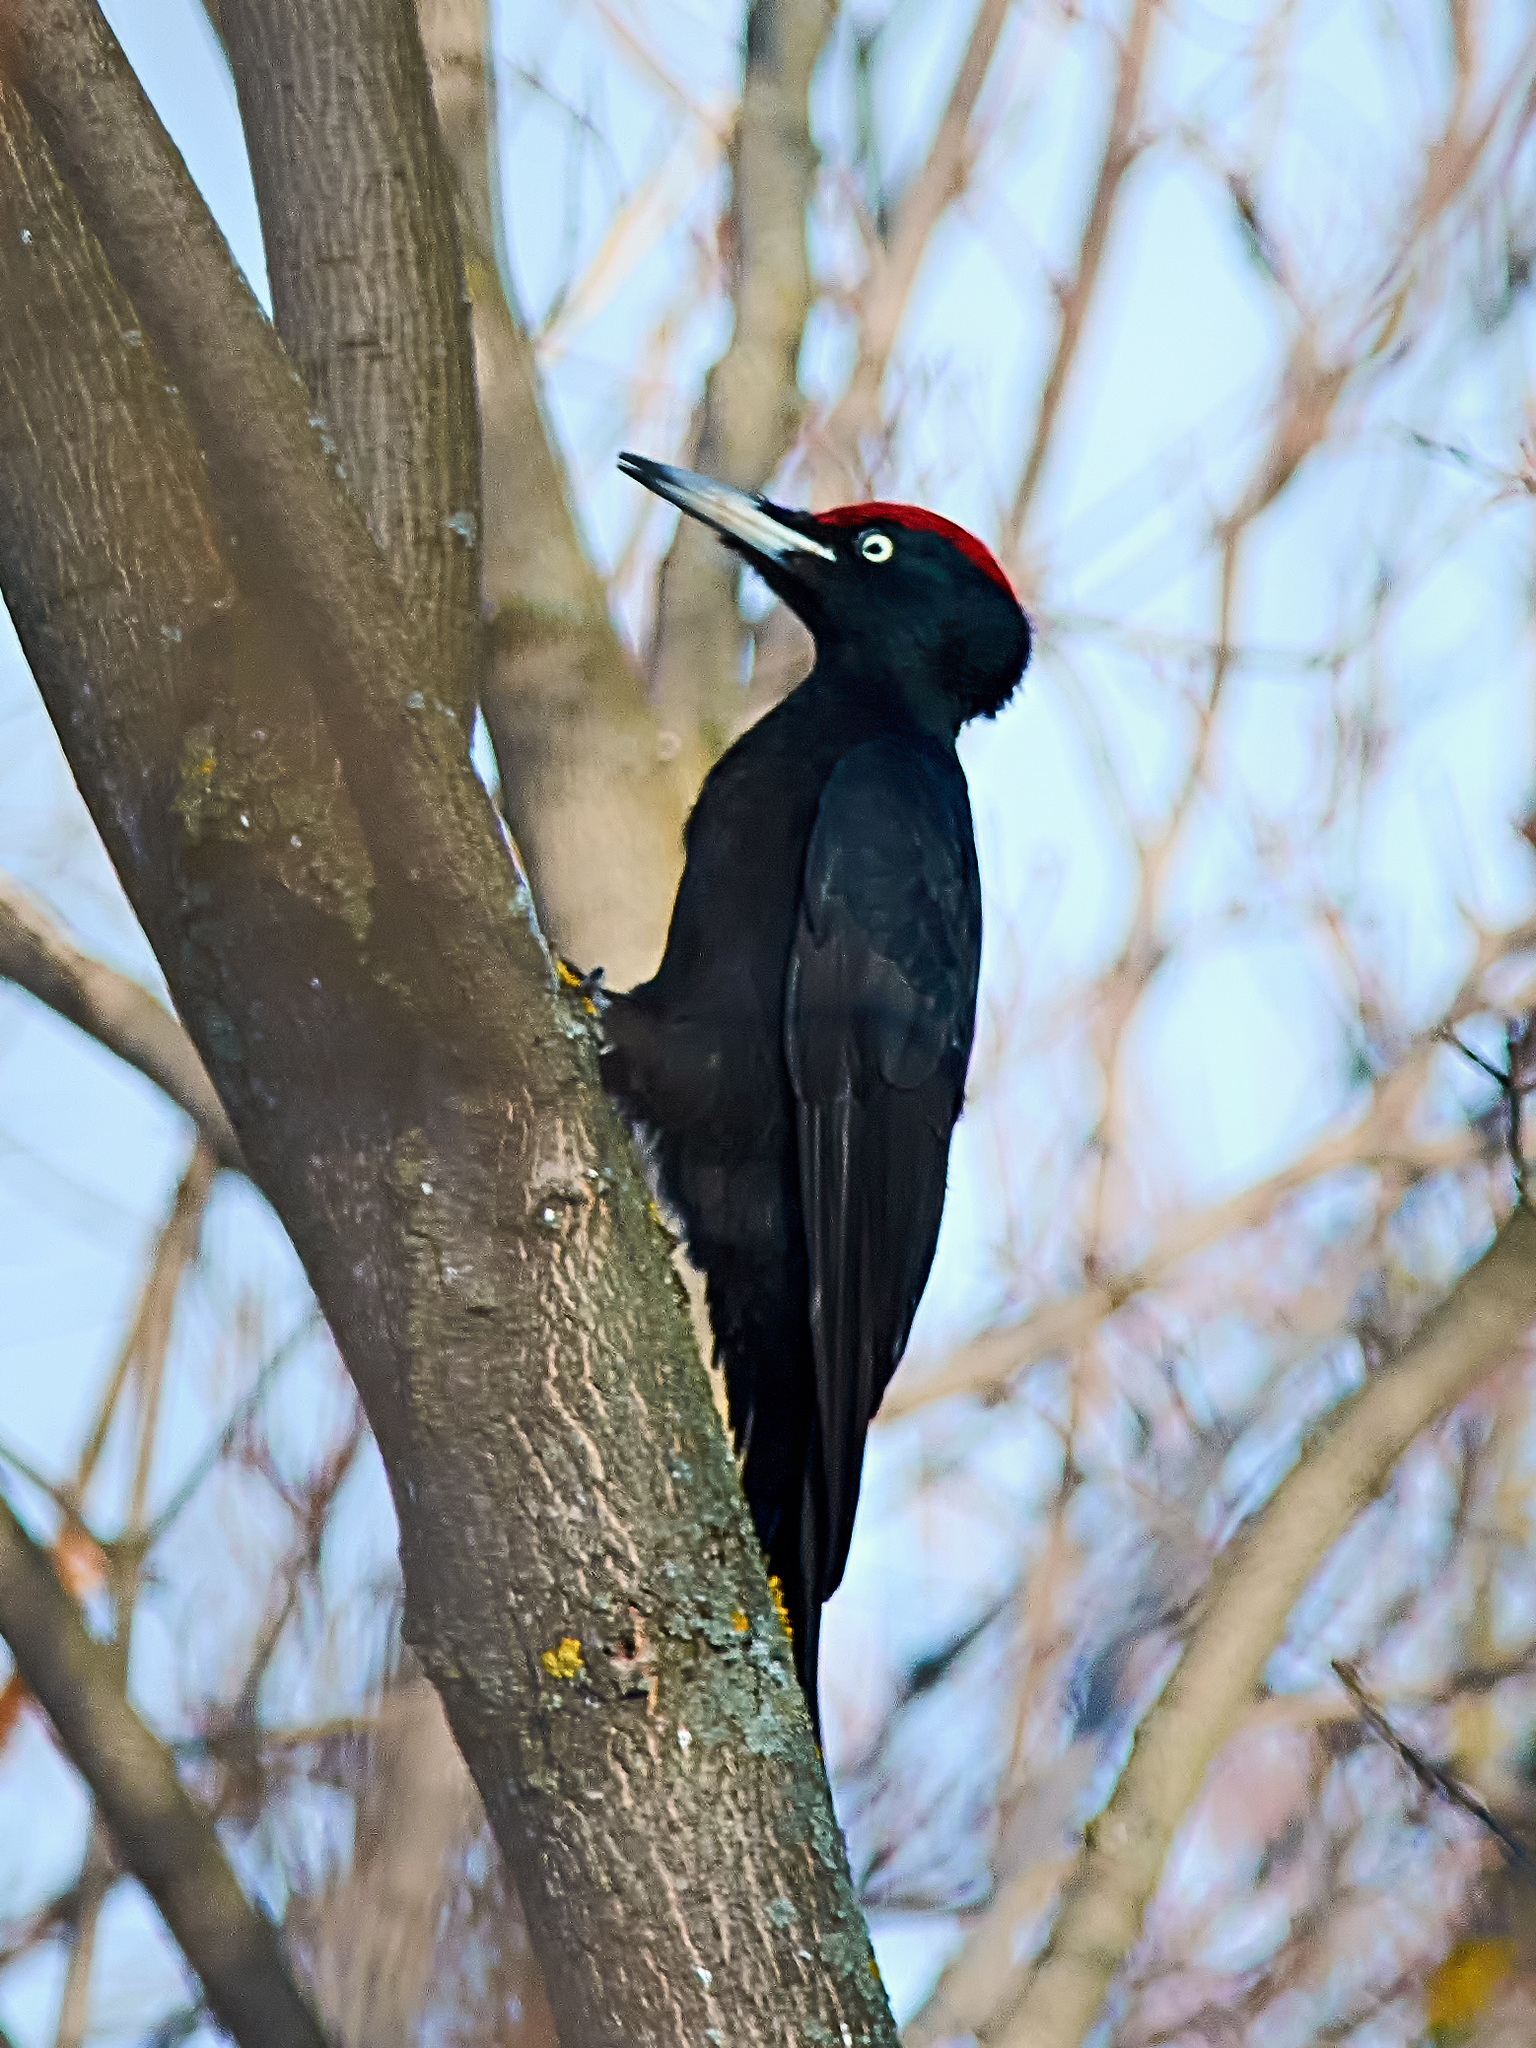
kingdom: Animalia
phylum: Chordata
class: Aves
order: Piciformes
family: Picidae
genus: Dryocopus
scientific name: Dryocopus martius
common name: Black woodpecker
